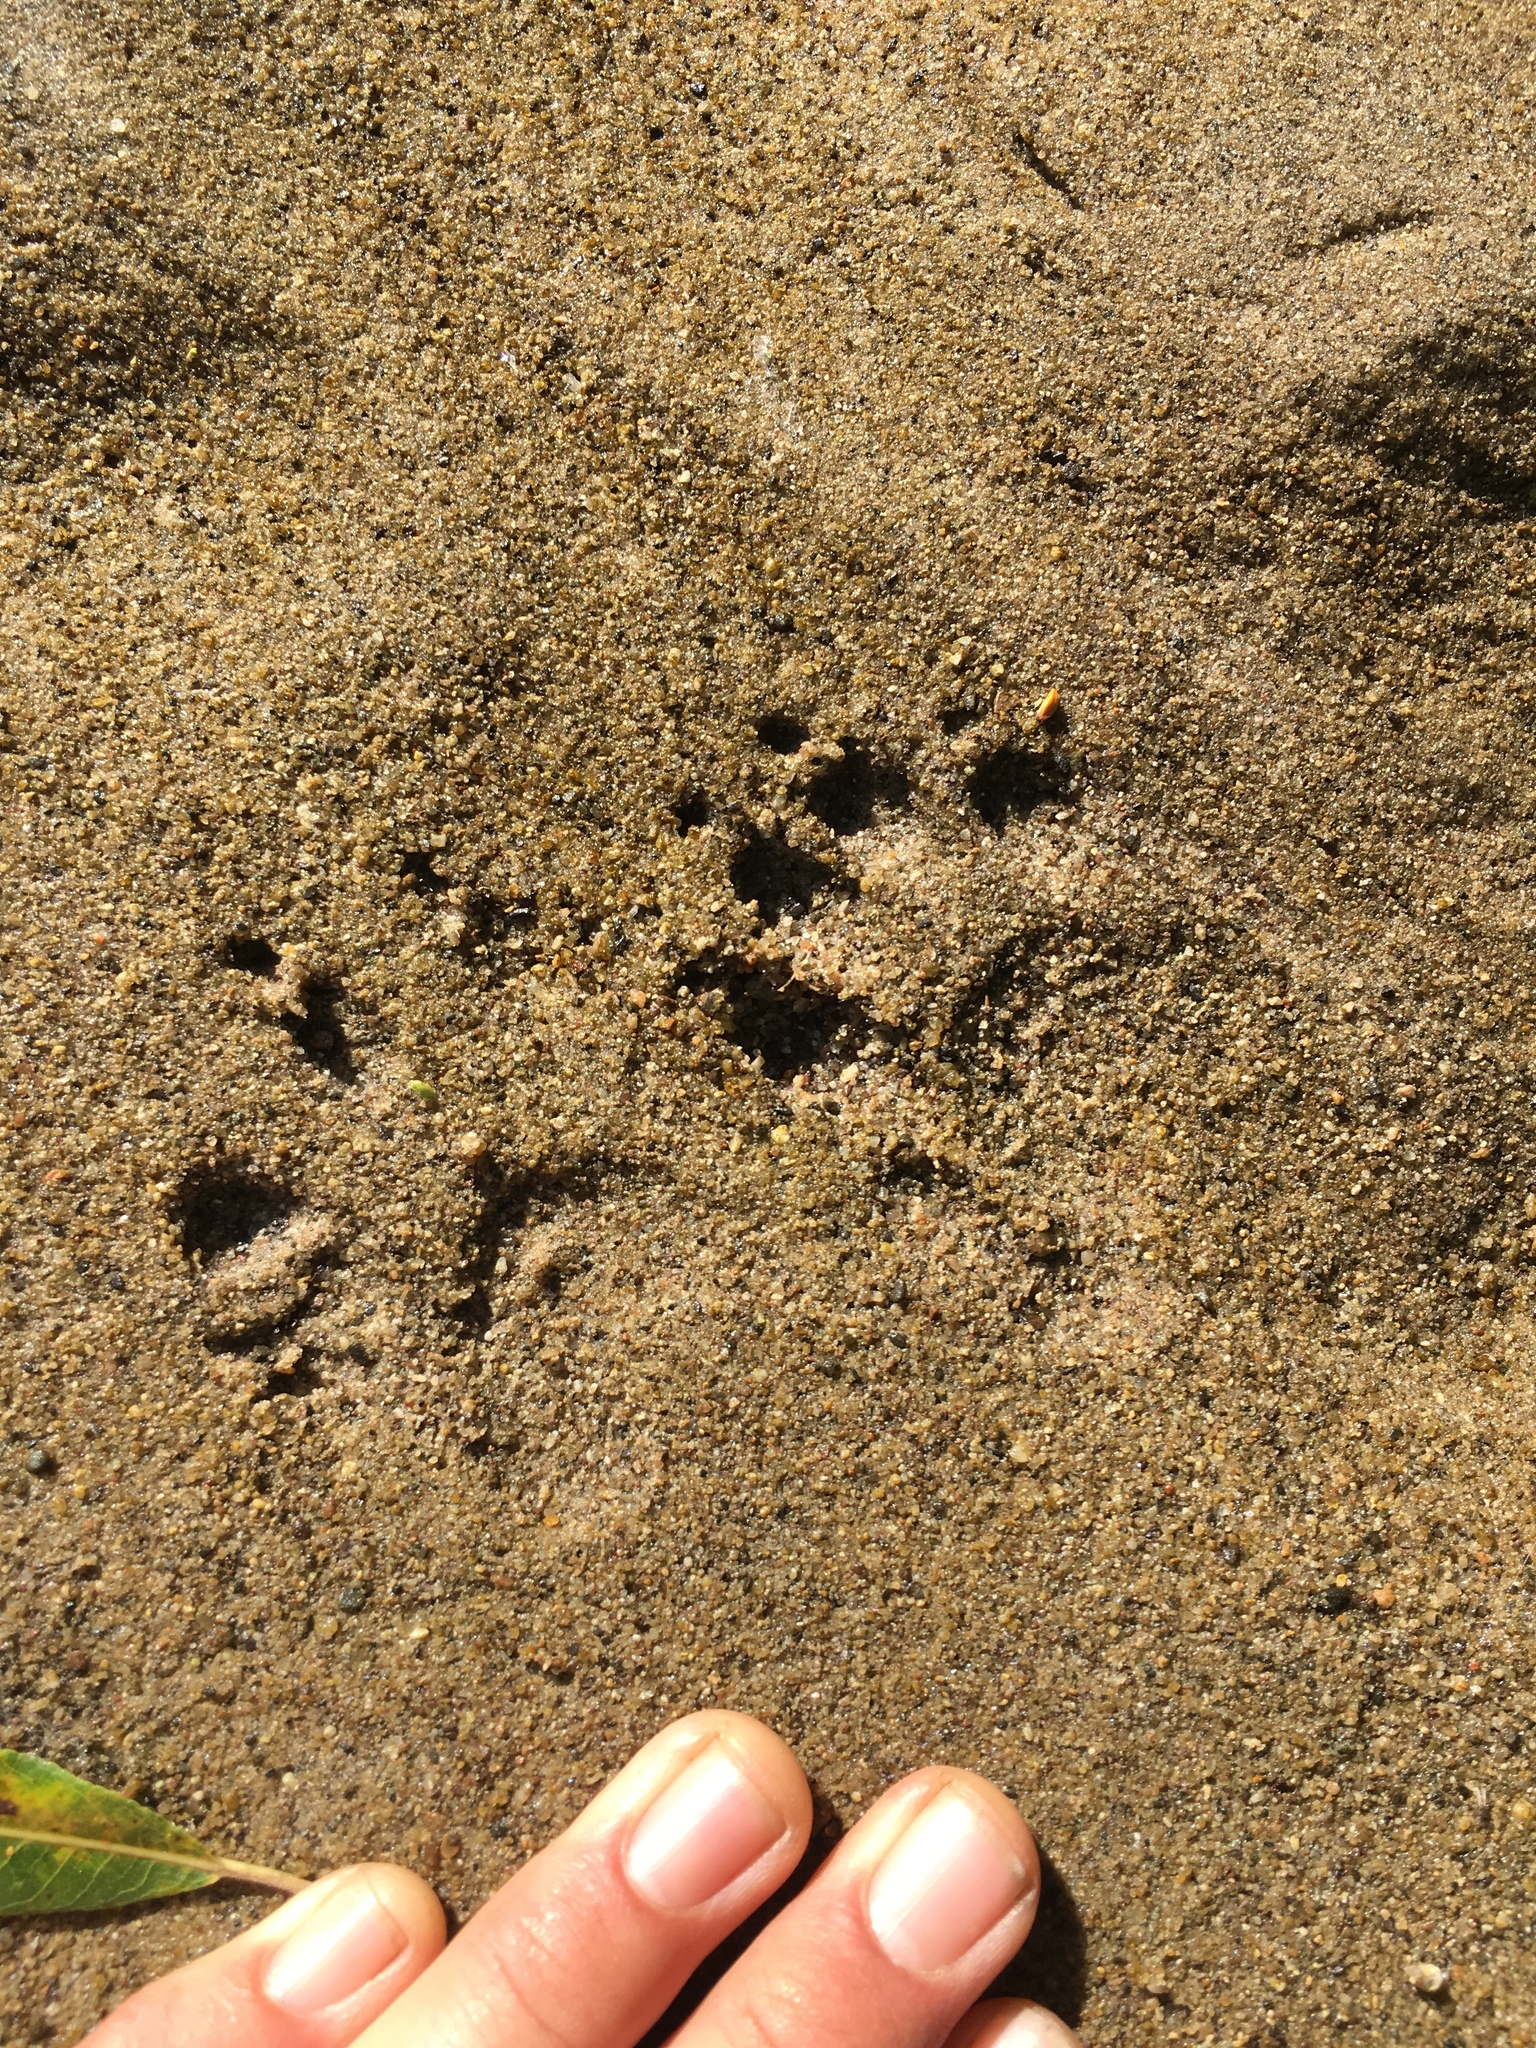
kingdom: Animalia
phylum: Chordata
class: Mammalia
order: Carnivora
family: Procyonidae
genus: Procyon
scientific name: Procyon lotor
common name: Raccoon
